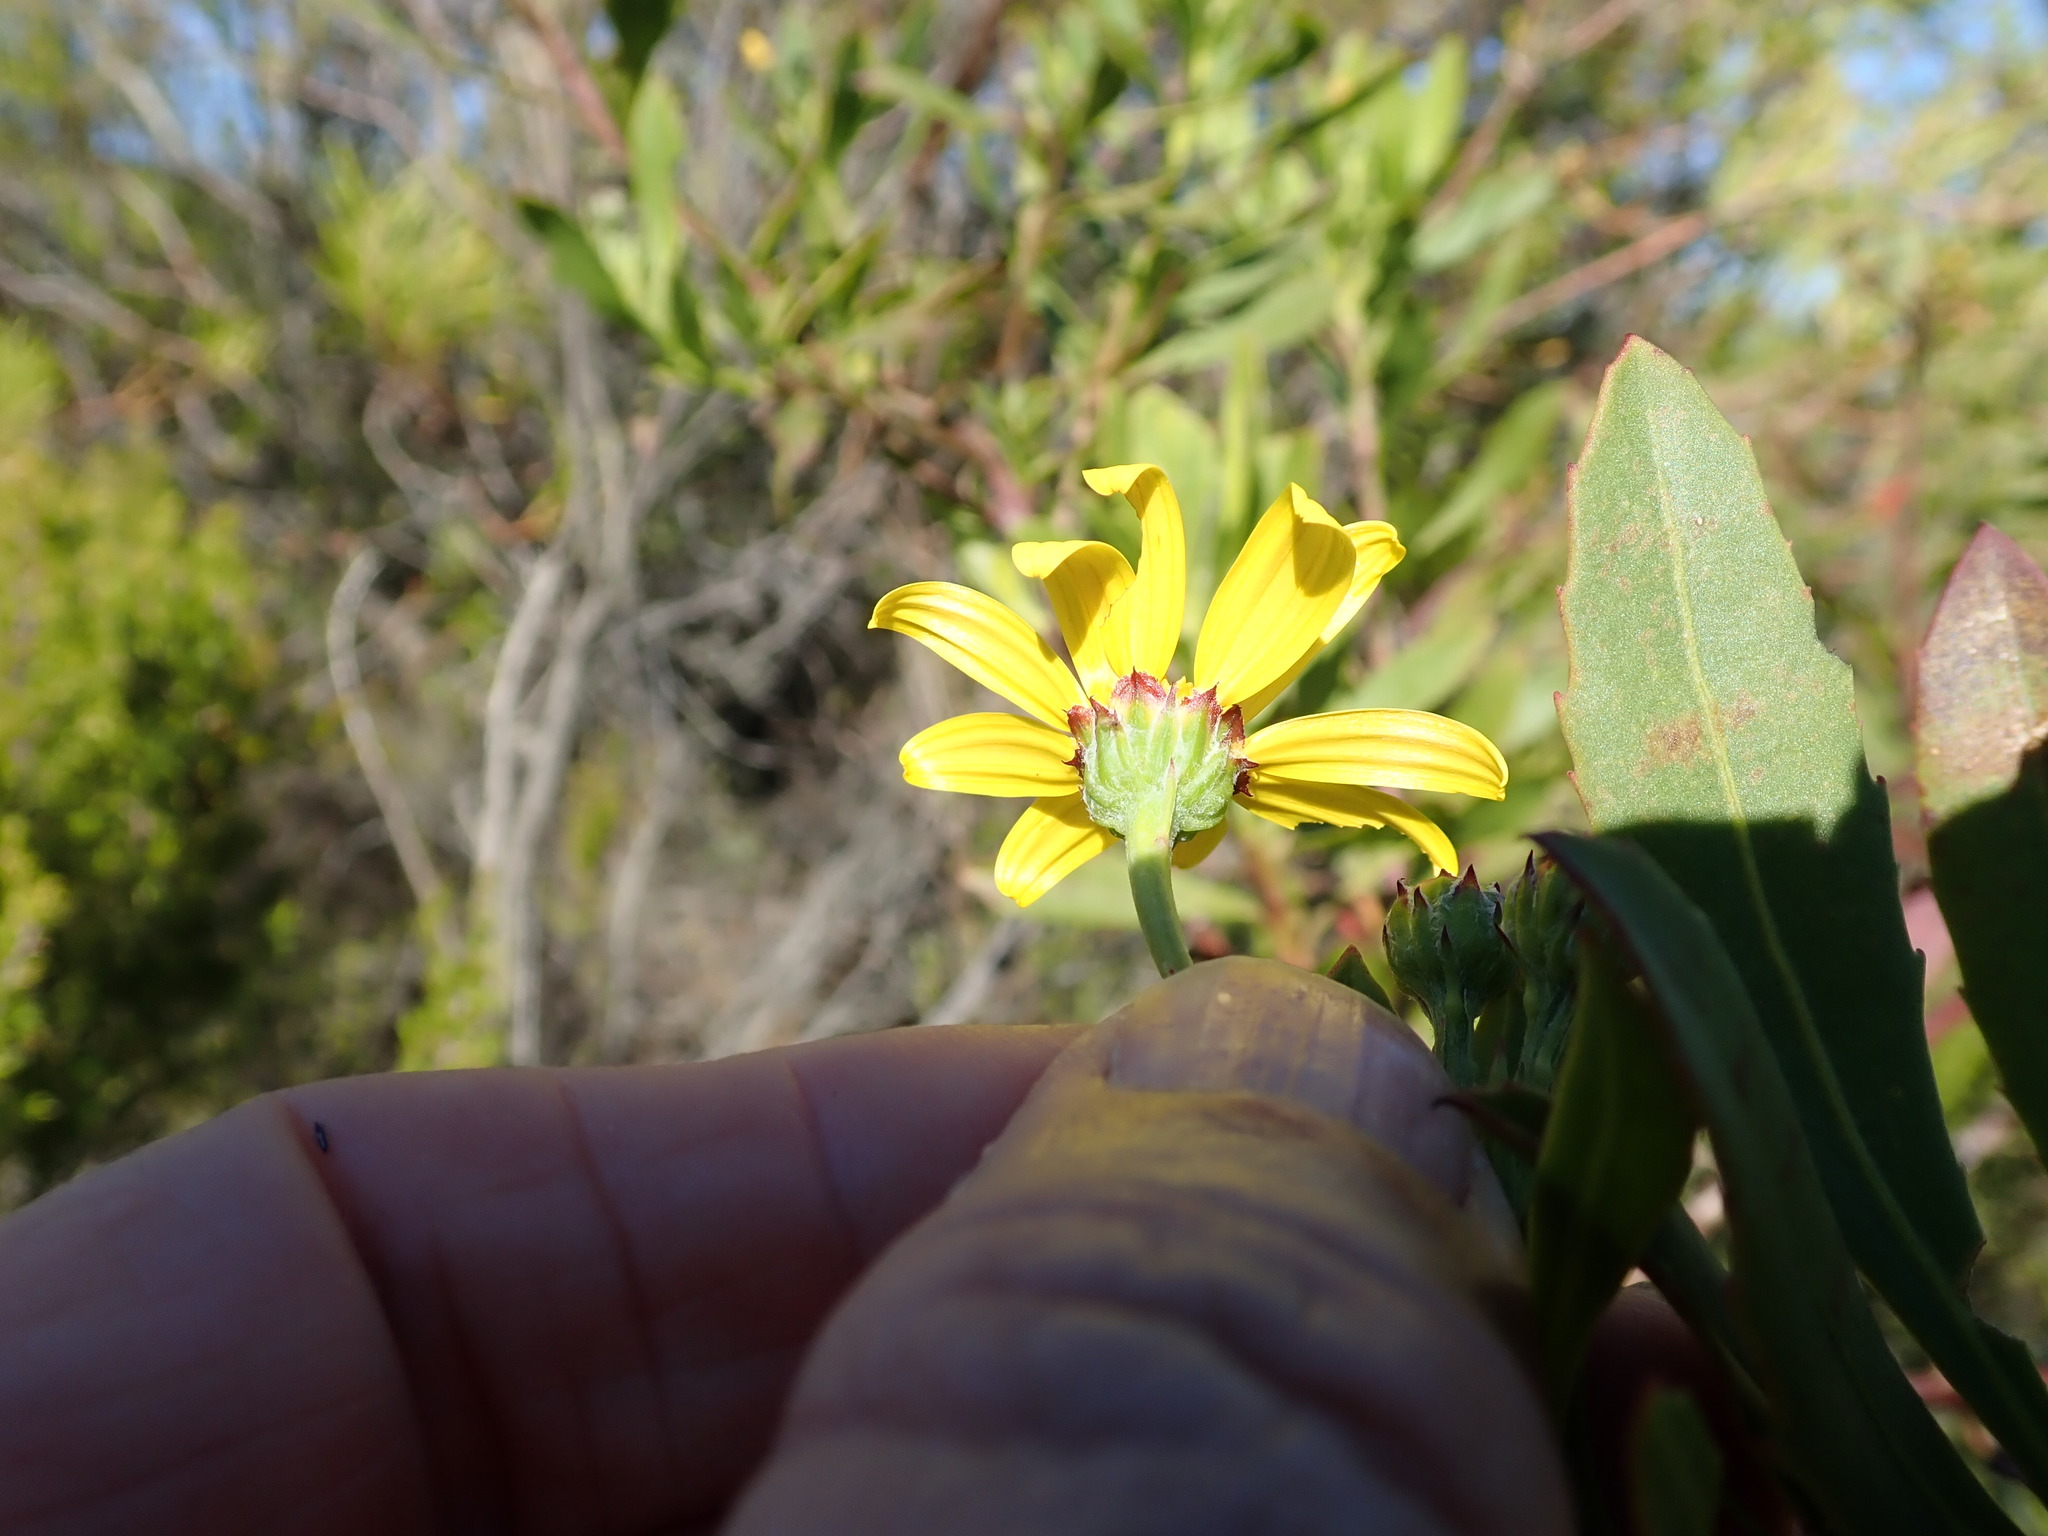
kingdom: Plantae
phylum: Tracheophyta
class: Magnoliopsida
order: Asterales
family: Asteraceae
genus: Osteospermum
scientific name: Osteospermum moniliferum
